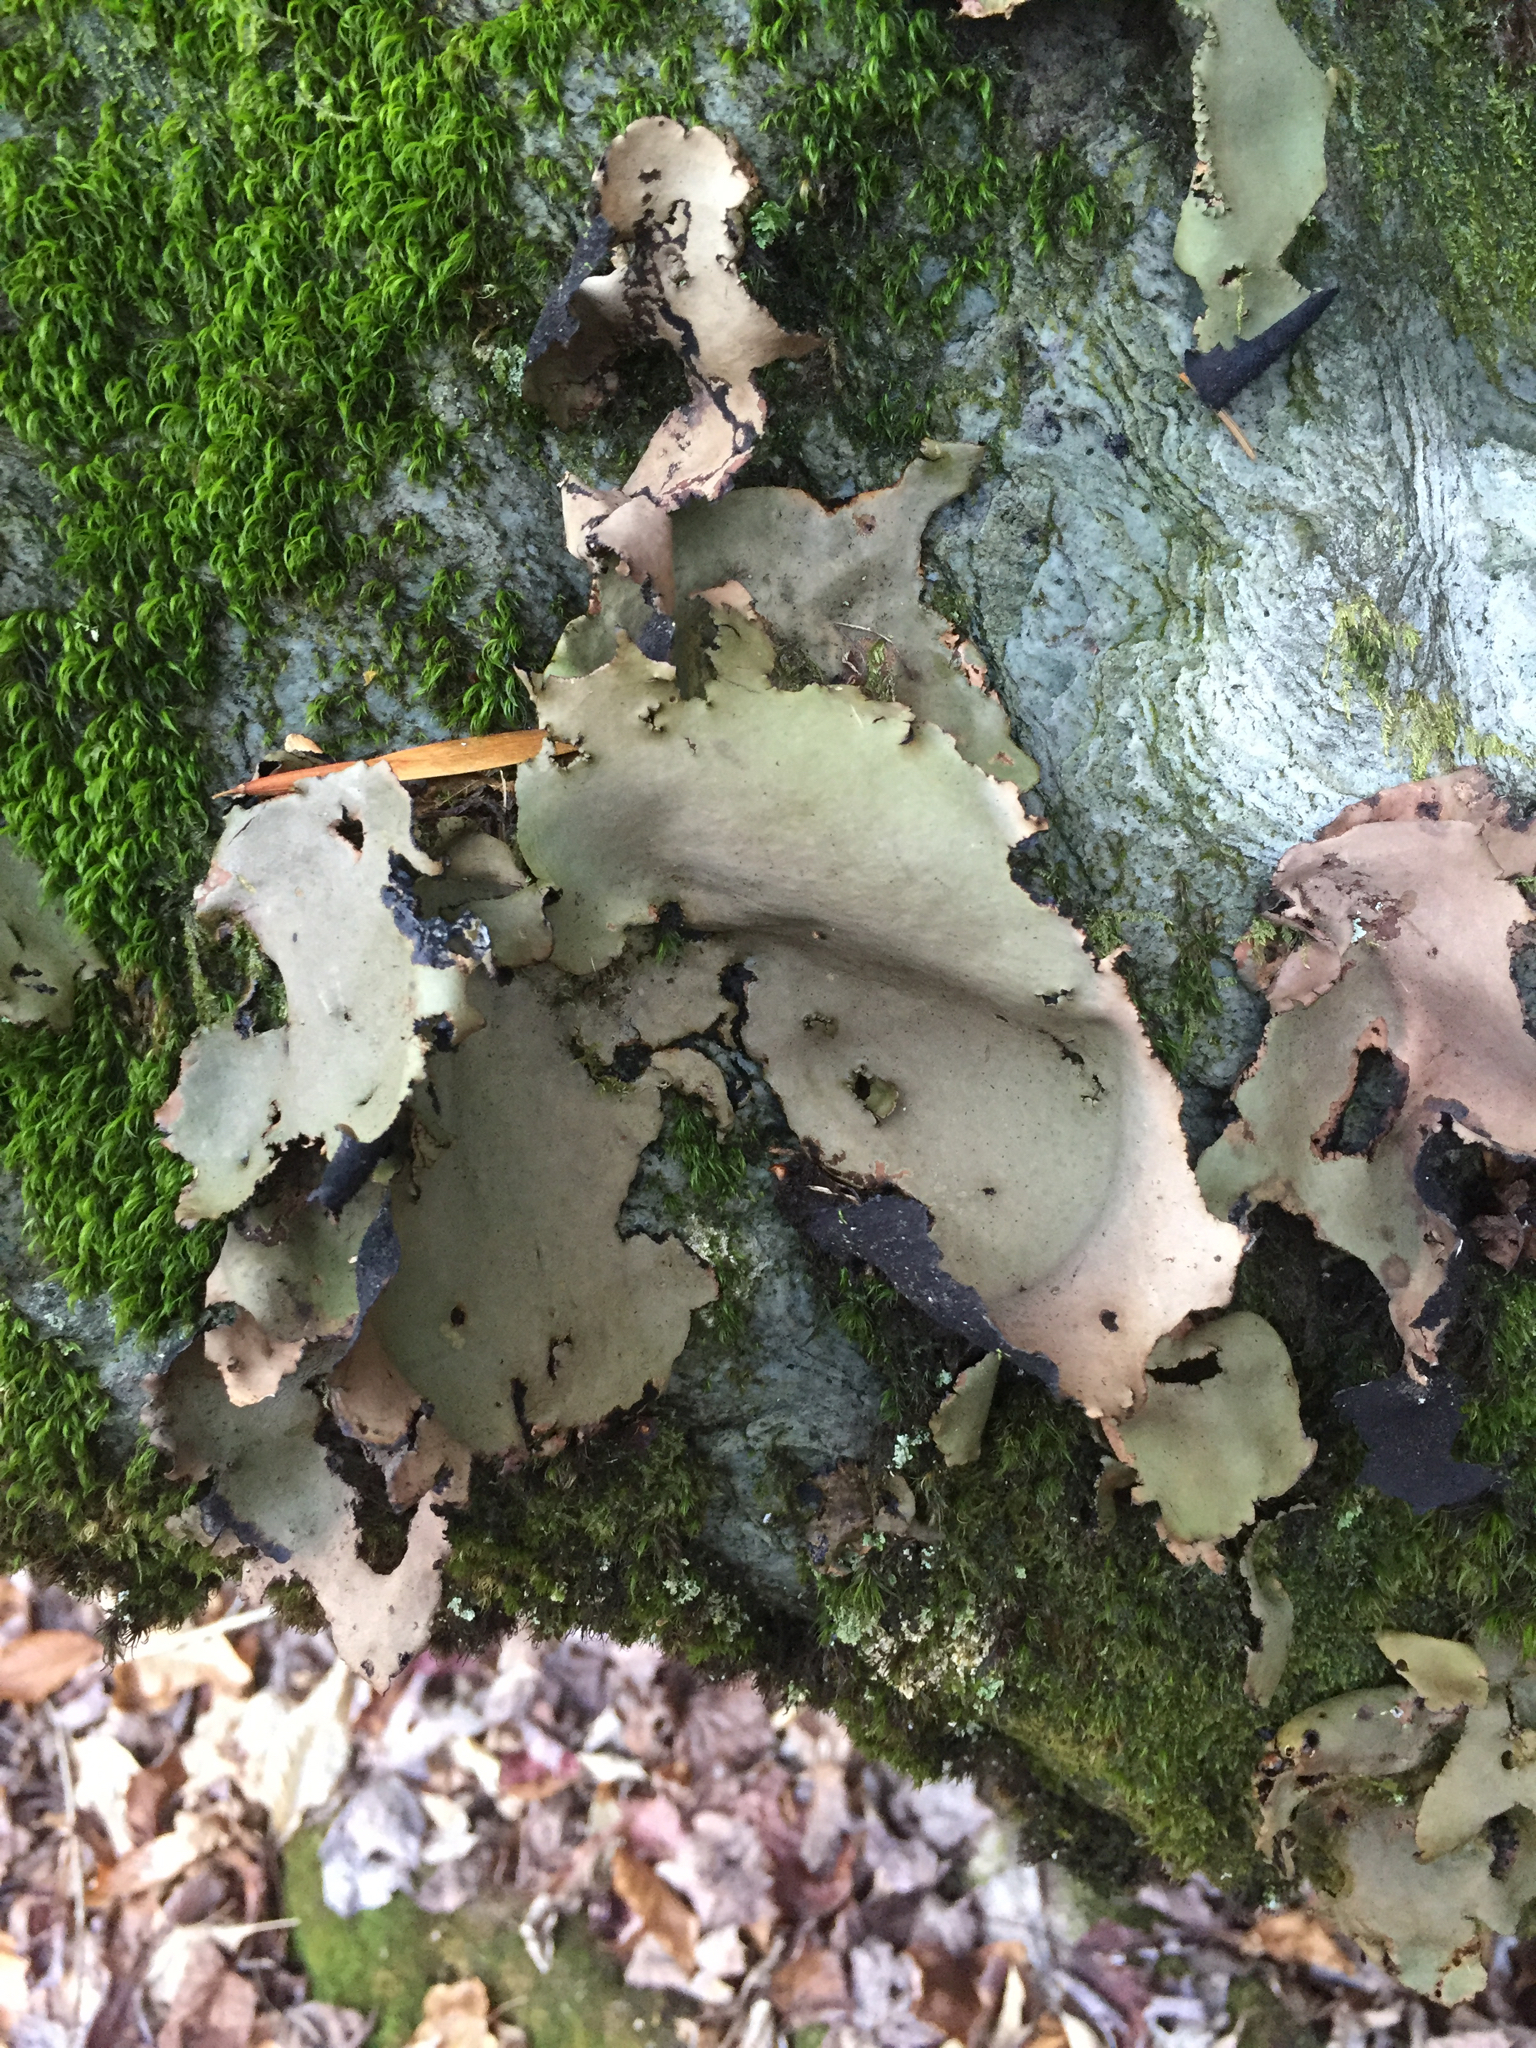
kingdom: Fungi
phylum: Ascomycota
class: Lecanoromycetes
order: Umbilicariales
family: Umbilicariaceae
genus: Umbilicaria
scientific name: Umbilicaria mammulata
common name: Smooth rock tripe
